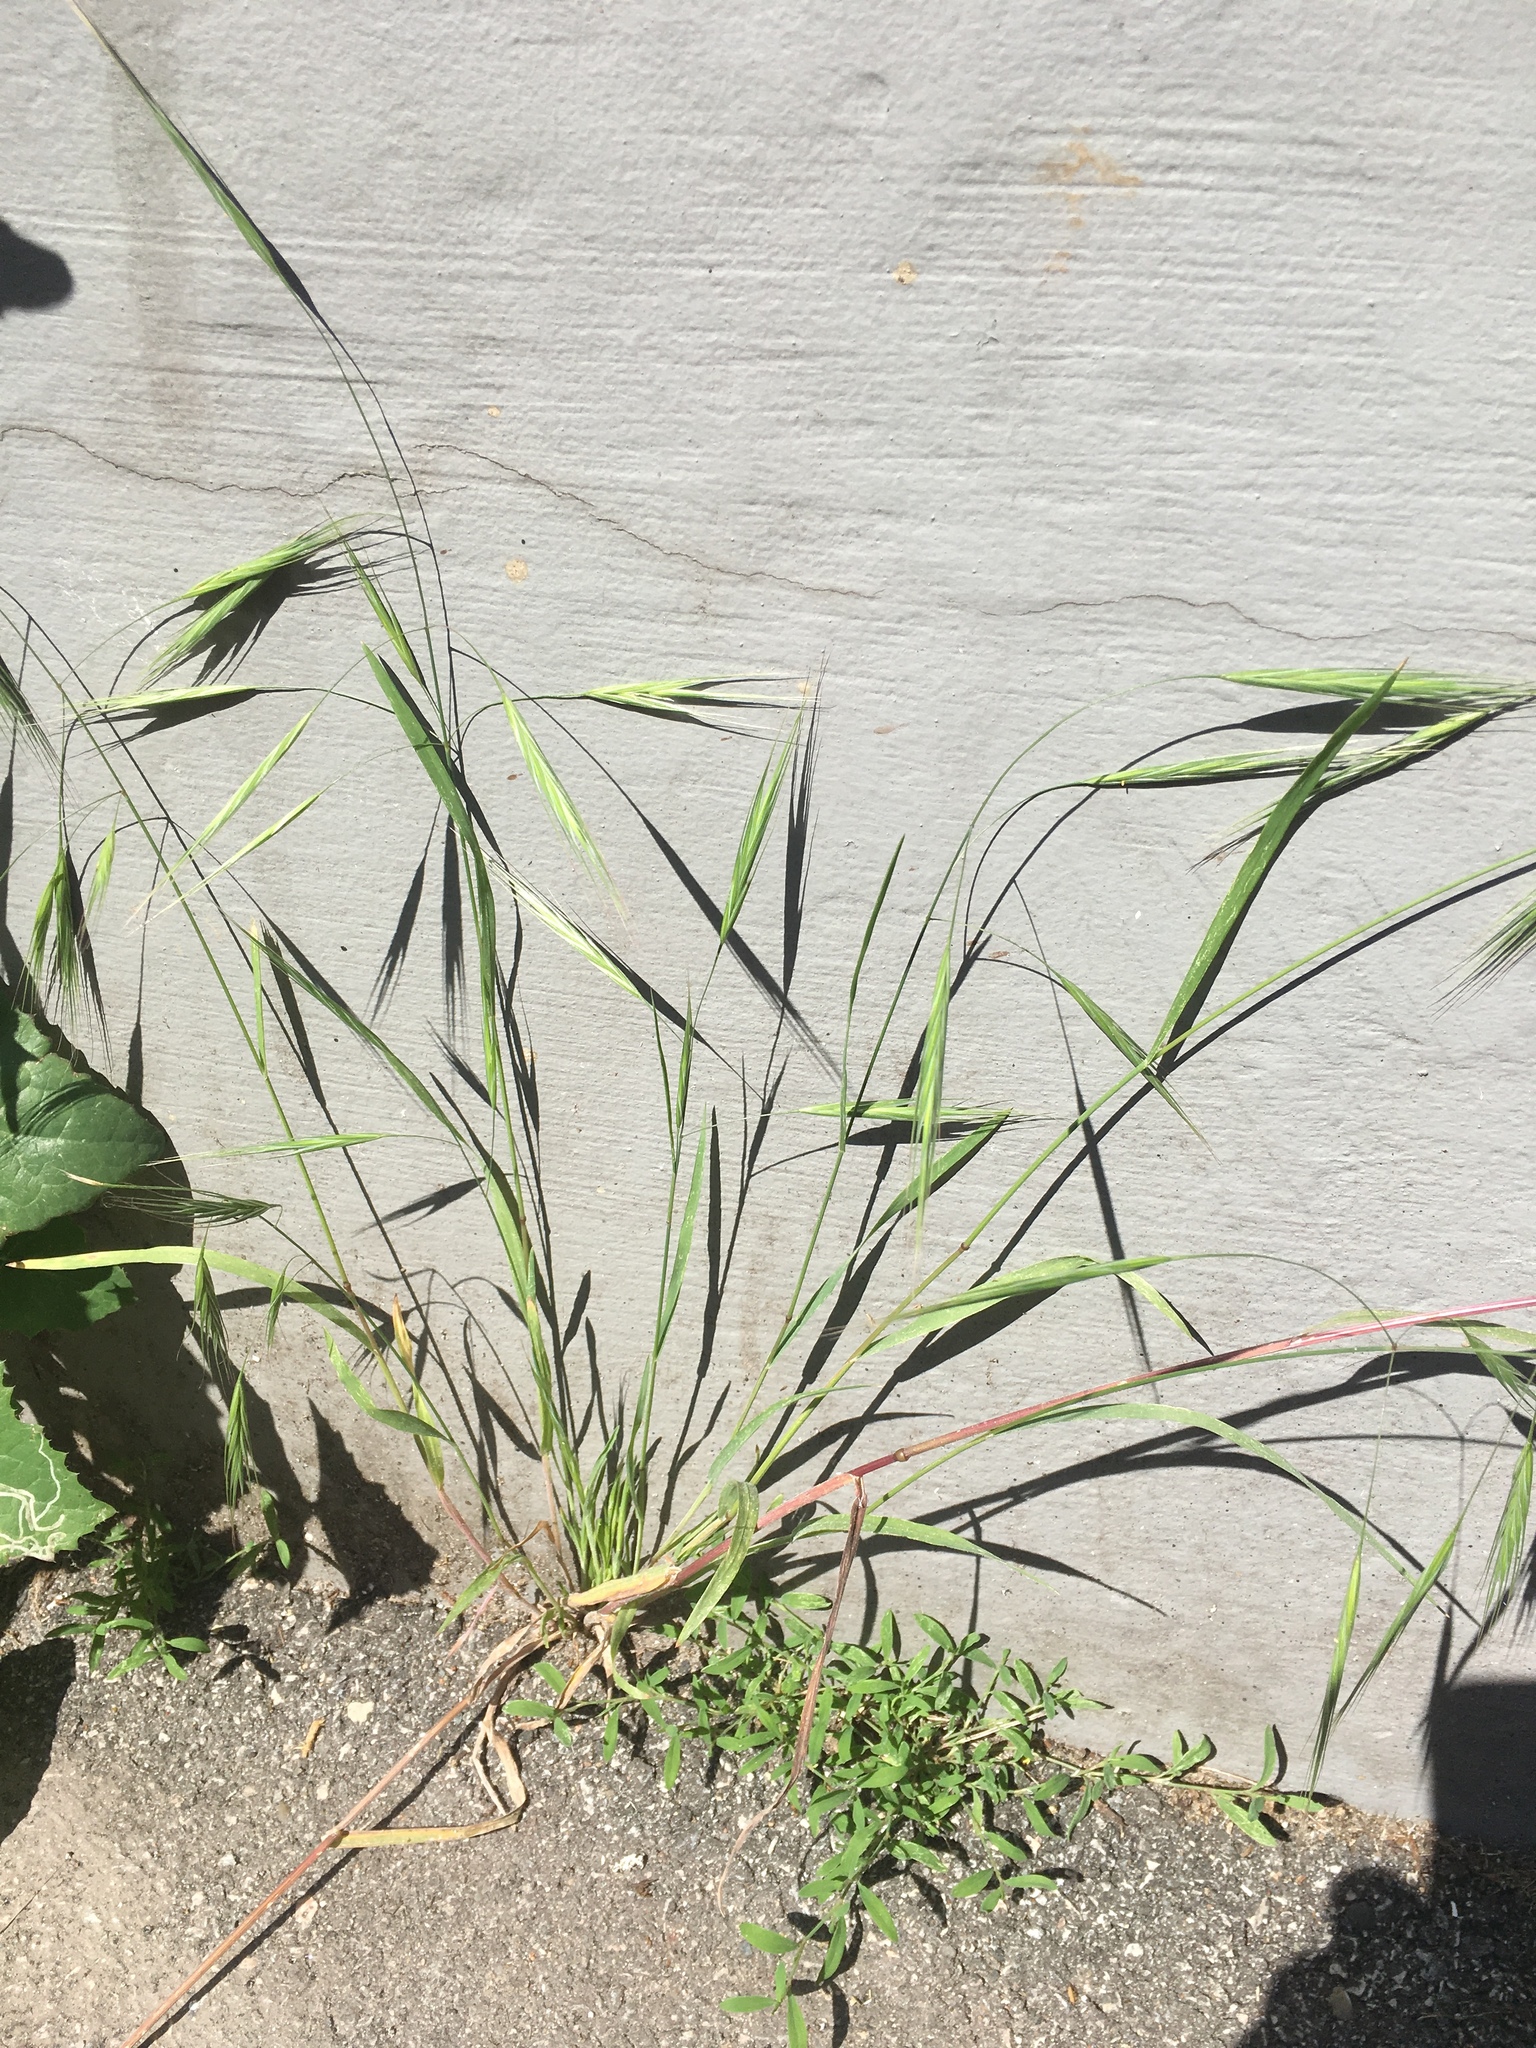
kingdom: Plantae
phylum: Tracheophyta
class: Liliopsida
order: Poales
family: Poaceae
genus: Bromus
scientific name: Bromus sterilis
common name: Poverty brome
